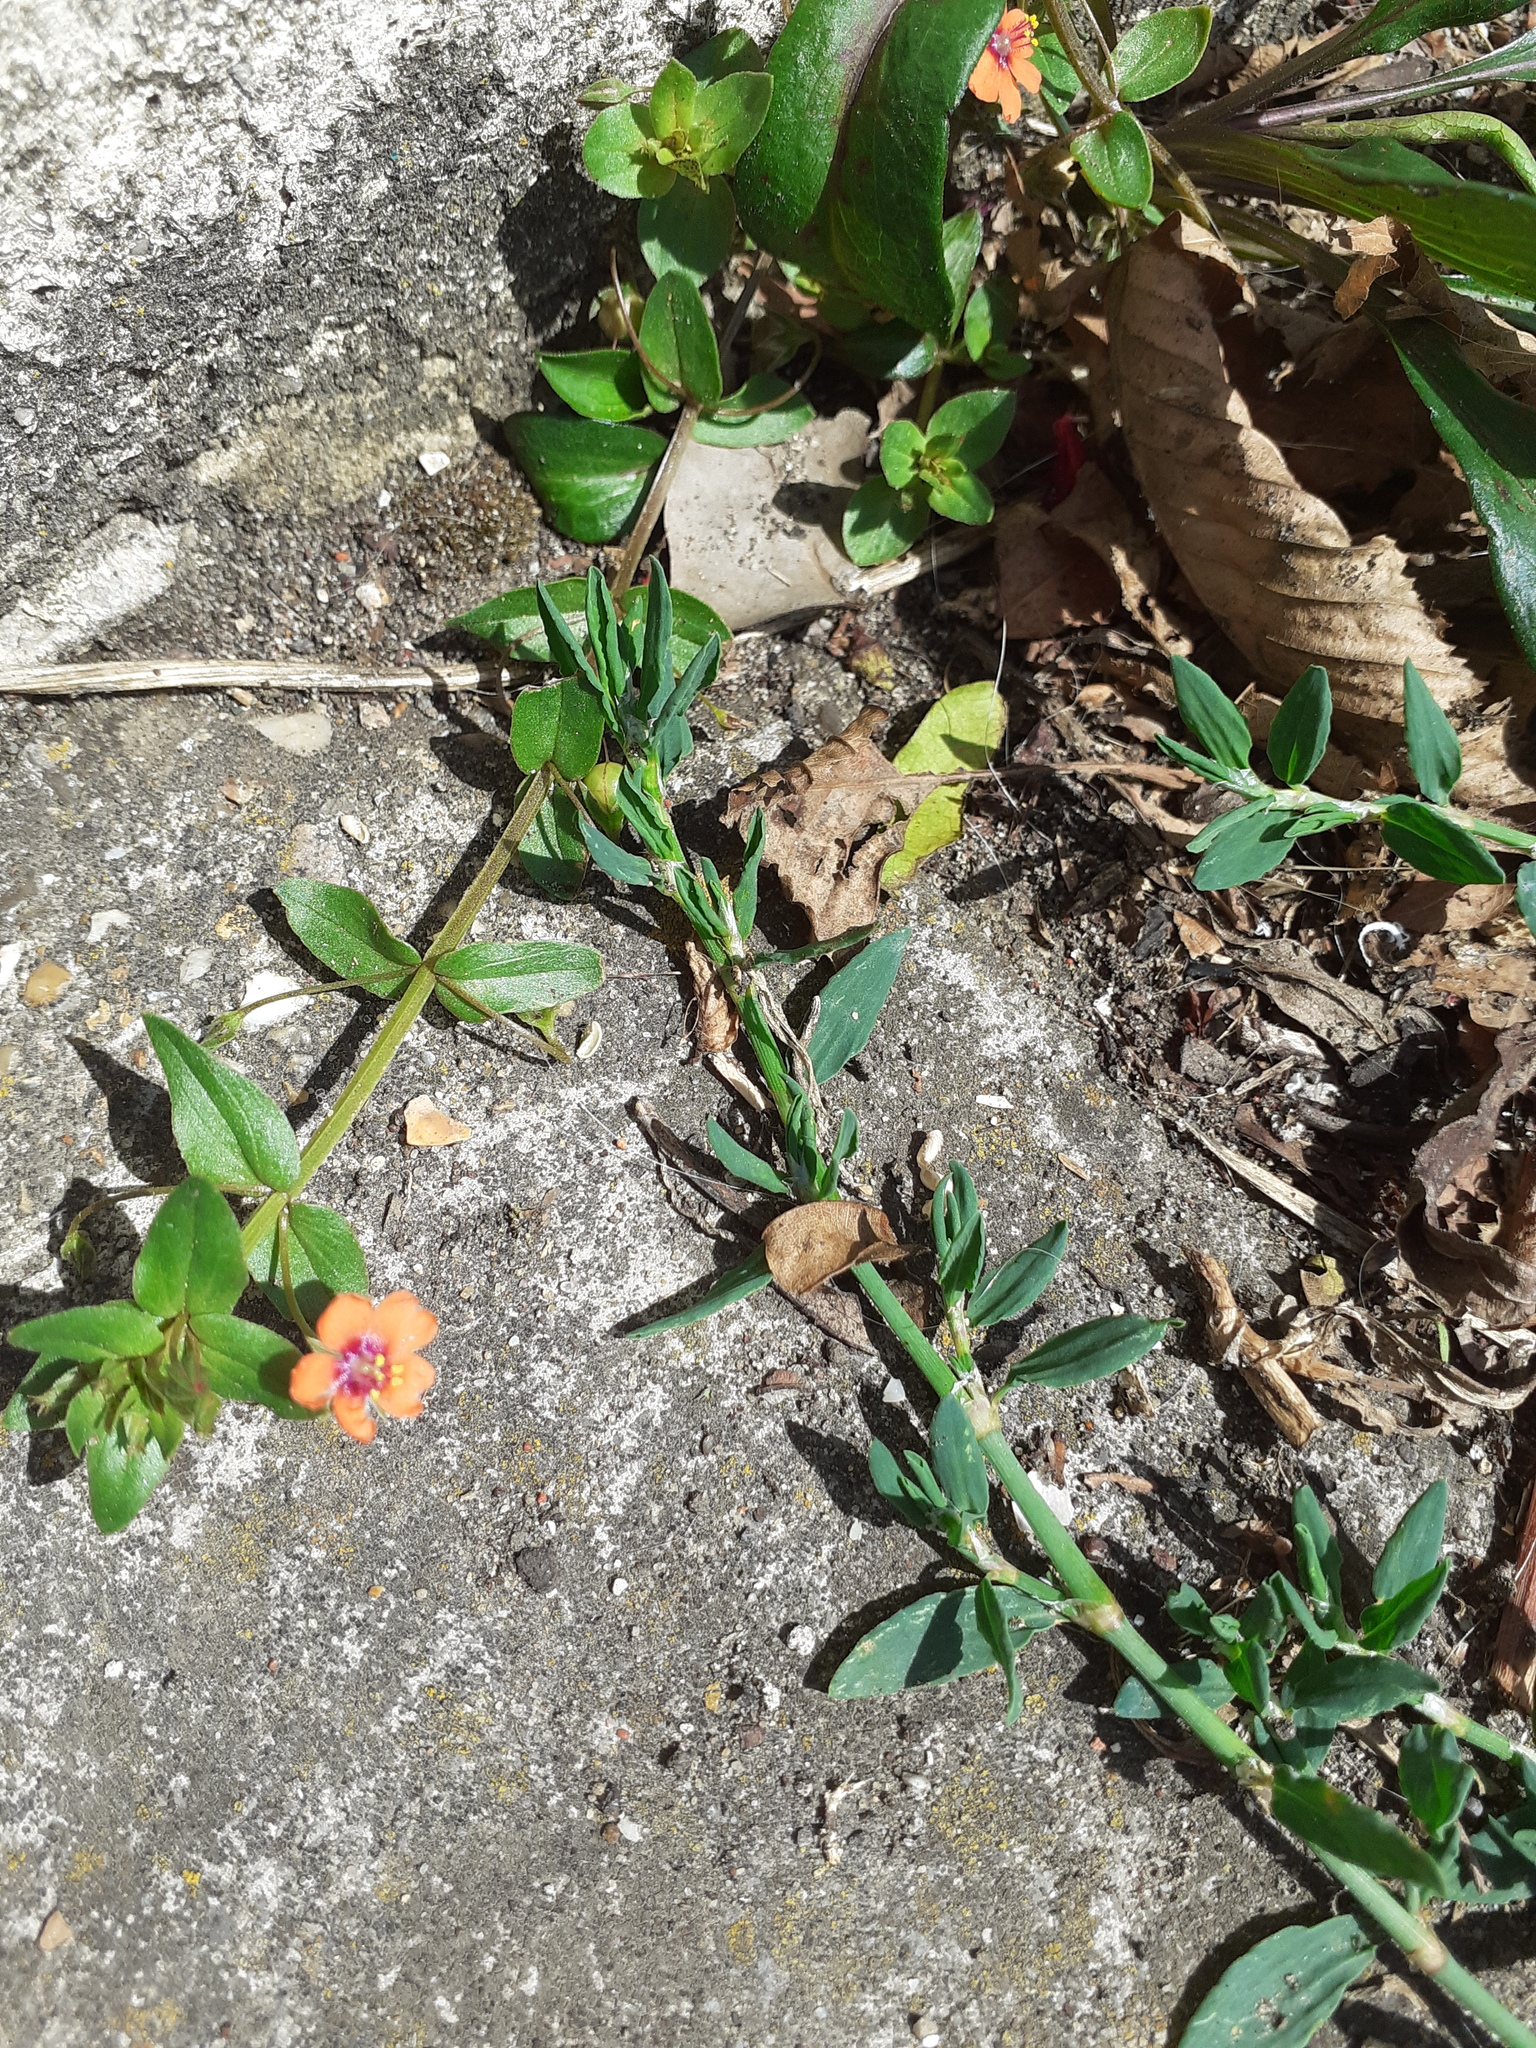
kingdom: Plantae
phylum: Tracheophyta
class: Magnoliopsida
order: Ericales
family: Primulaceae
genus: Lysimachia
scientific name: Lysimachia arvensis
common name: Scarlet pimpernel
